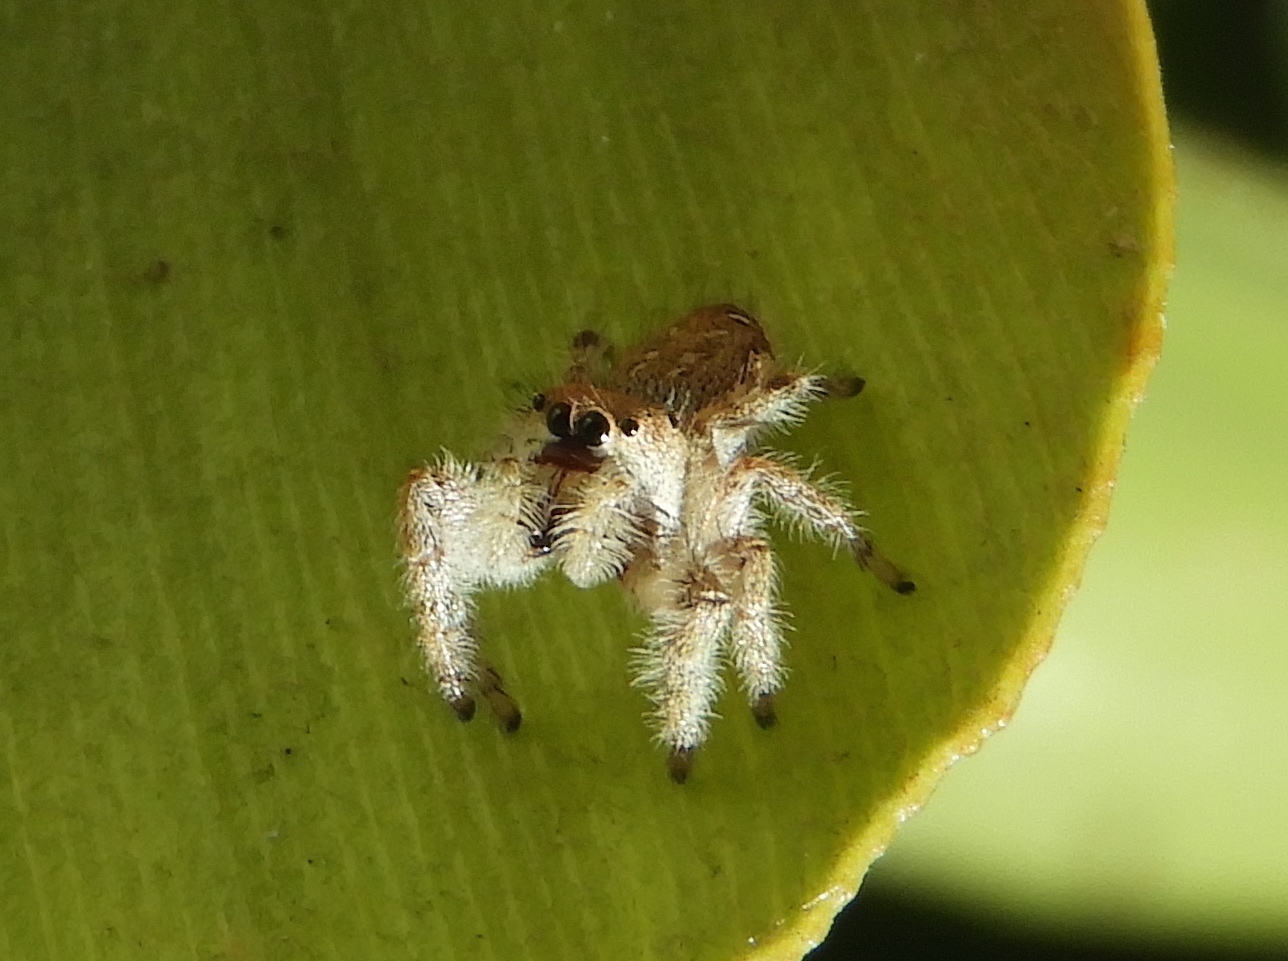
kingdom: Animalia
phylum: Arthropoda
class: Arachnida
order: Araneae
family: Salticidae
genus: Paraphidippus
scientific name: Paraphidippus fartilis
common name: Jumping spiders
